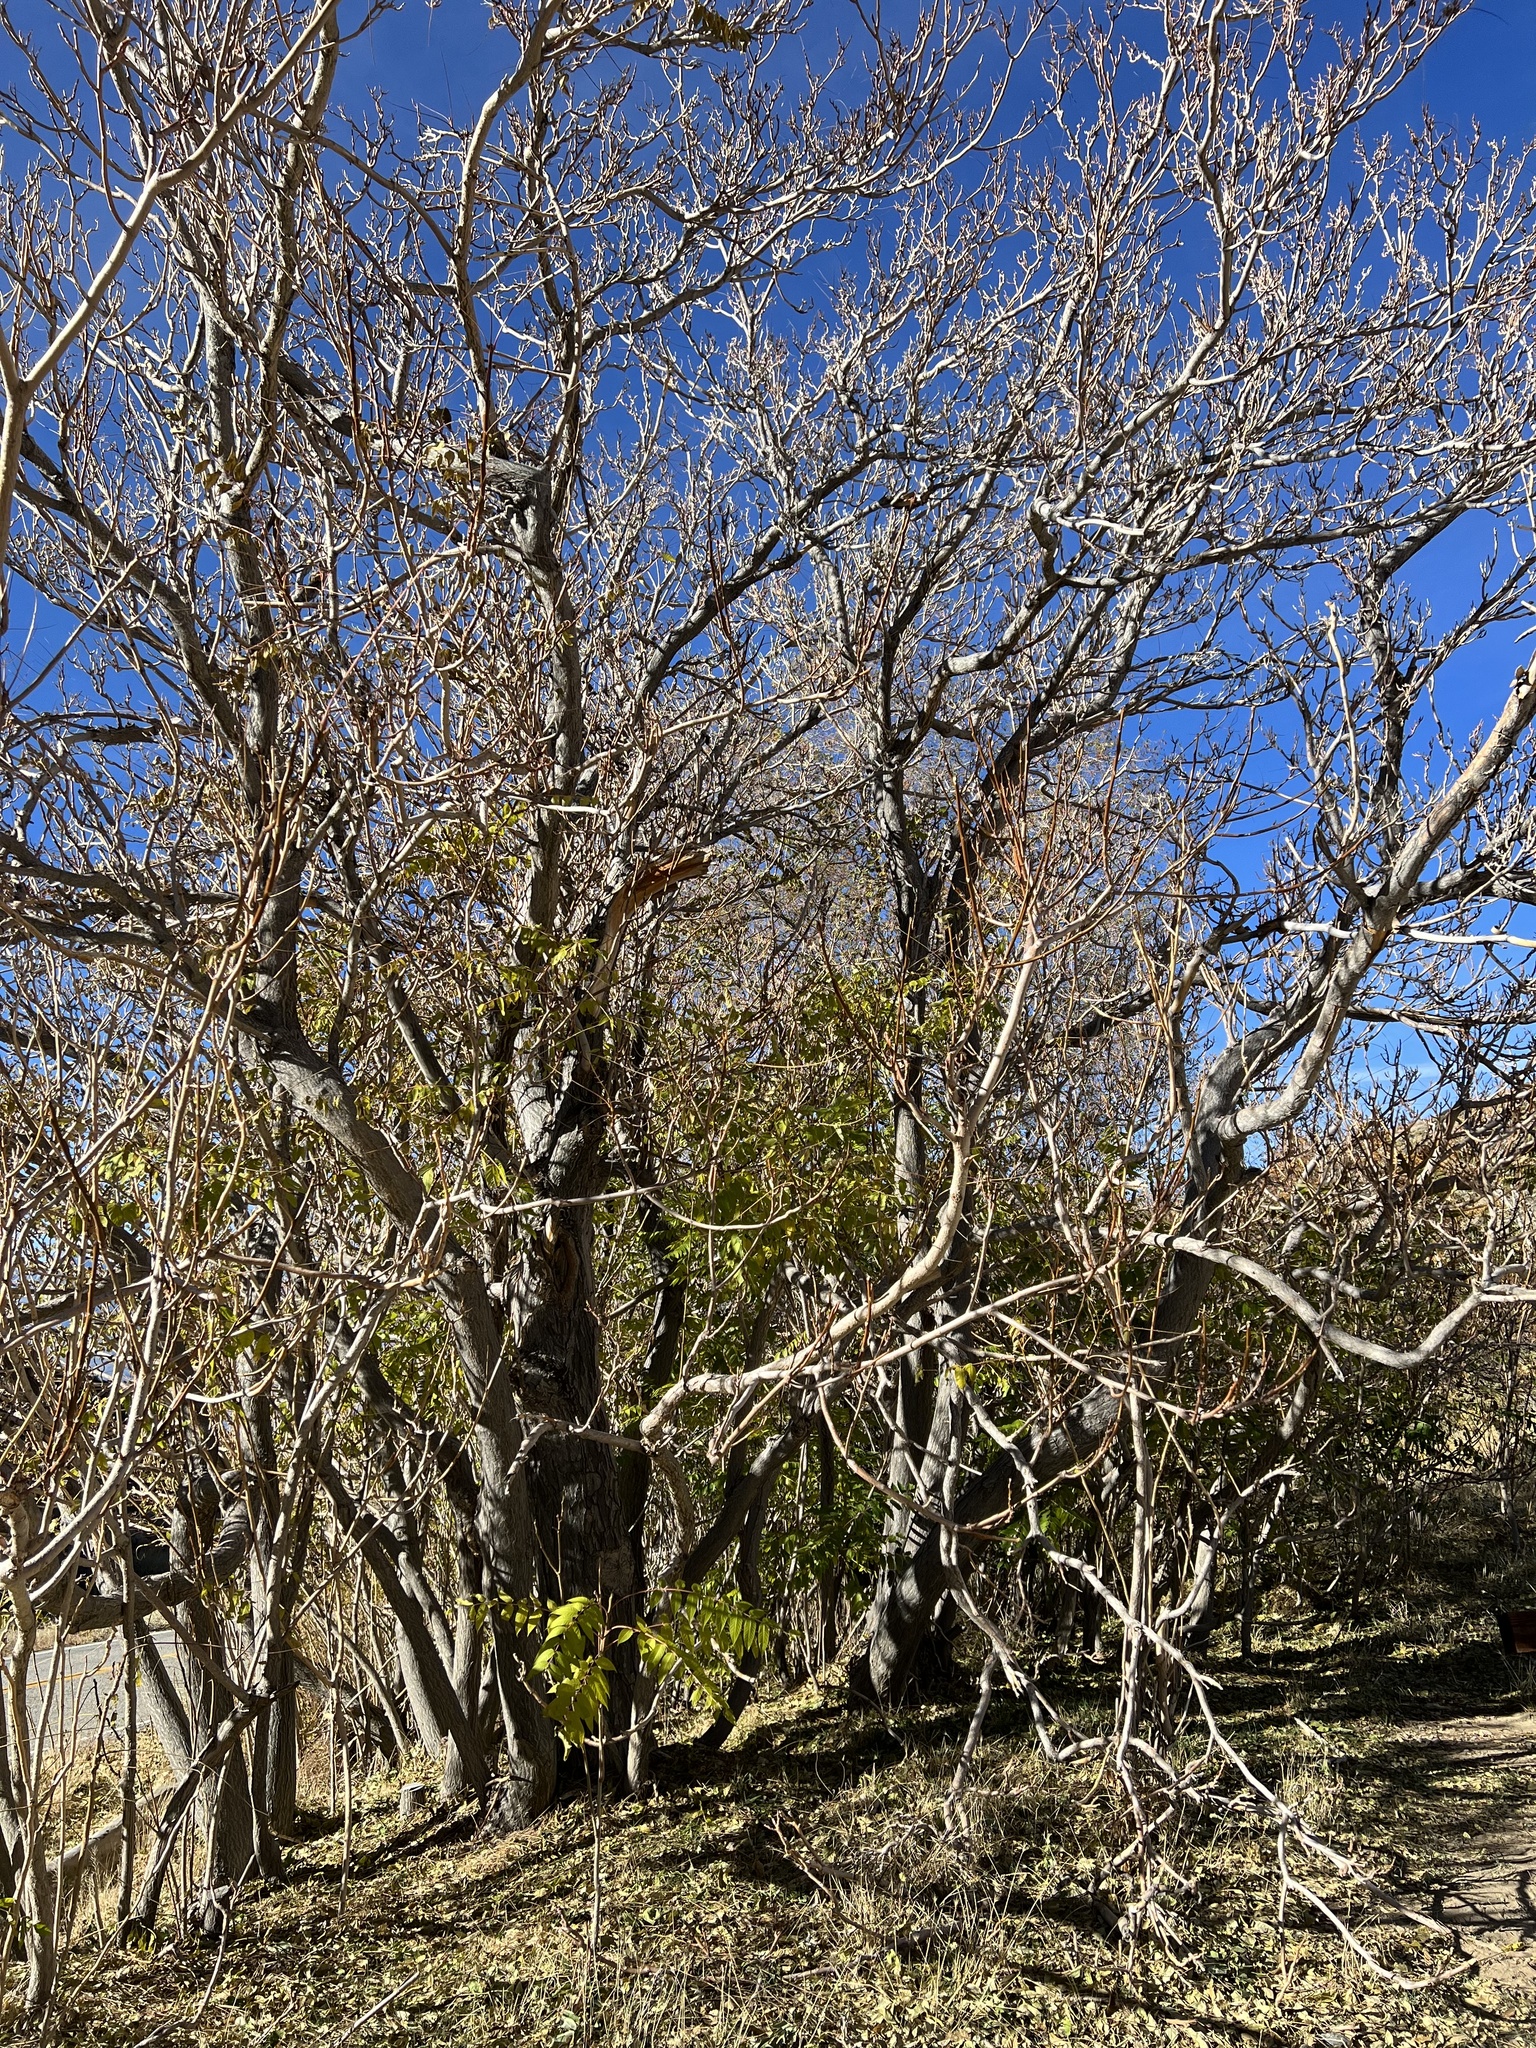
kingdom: Plantae
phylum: Tracheophyta
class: Magnoliopsida
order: Sapindales
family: Simaroubaceae
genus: Ailanthus
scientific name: Ailanthus altissima
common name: Tree-of-heaven
